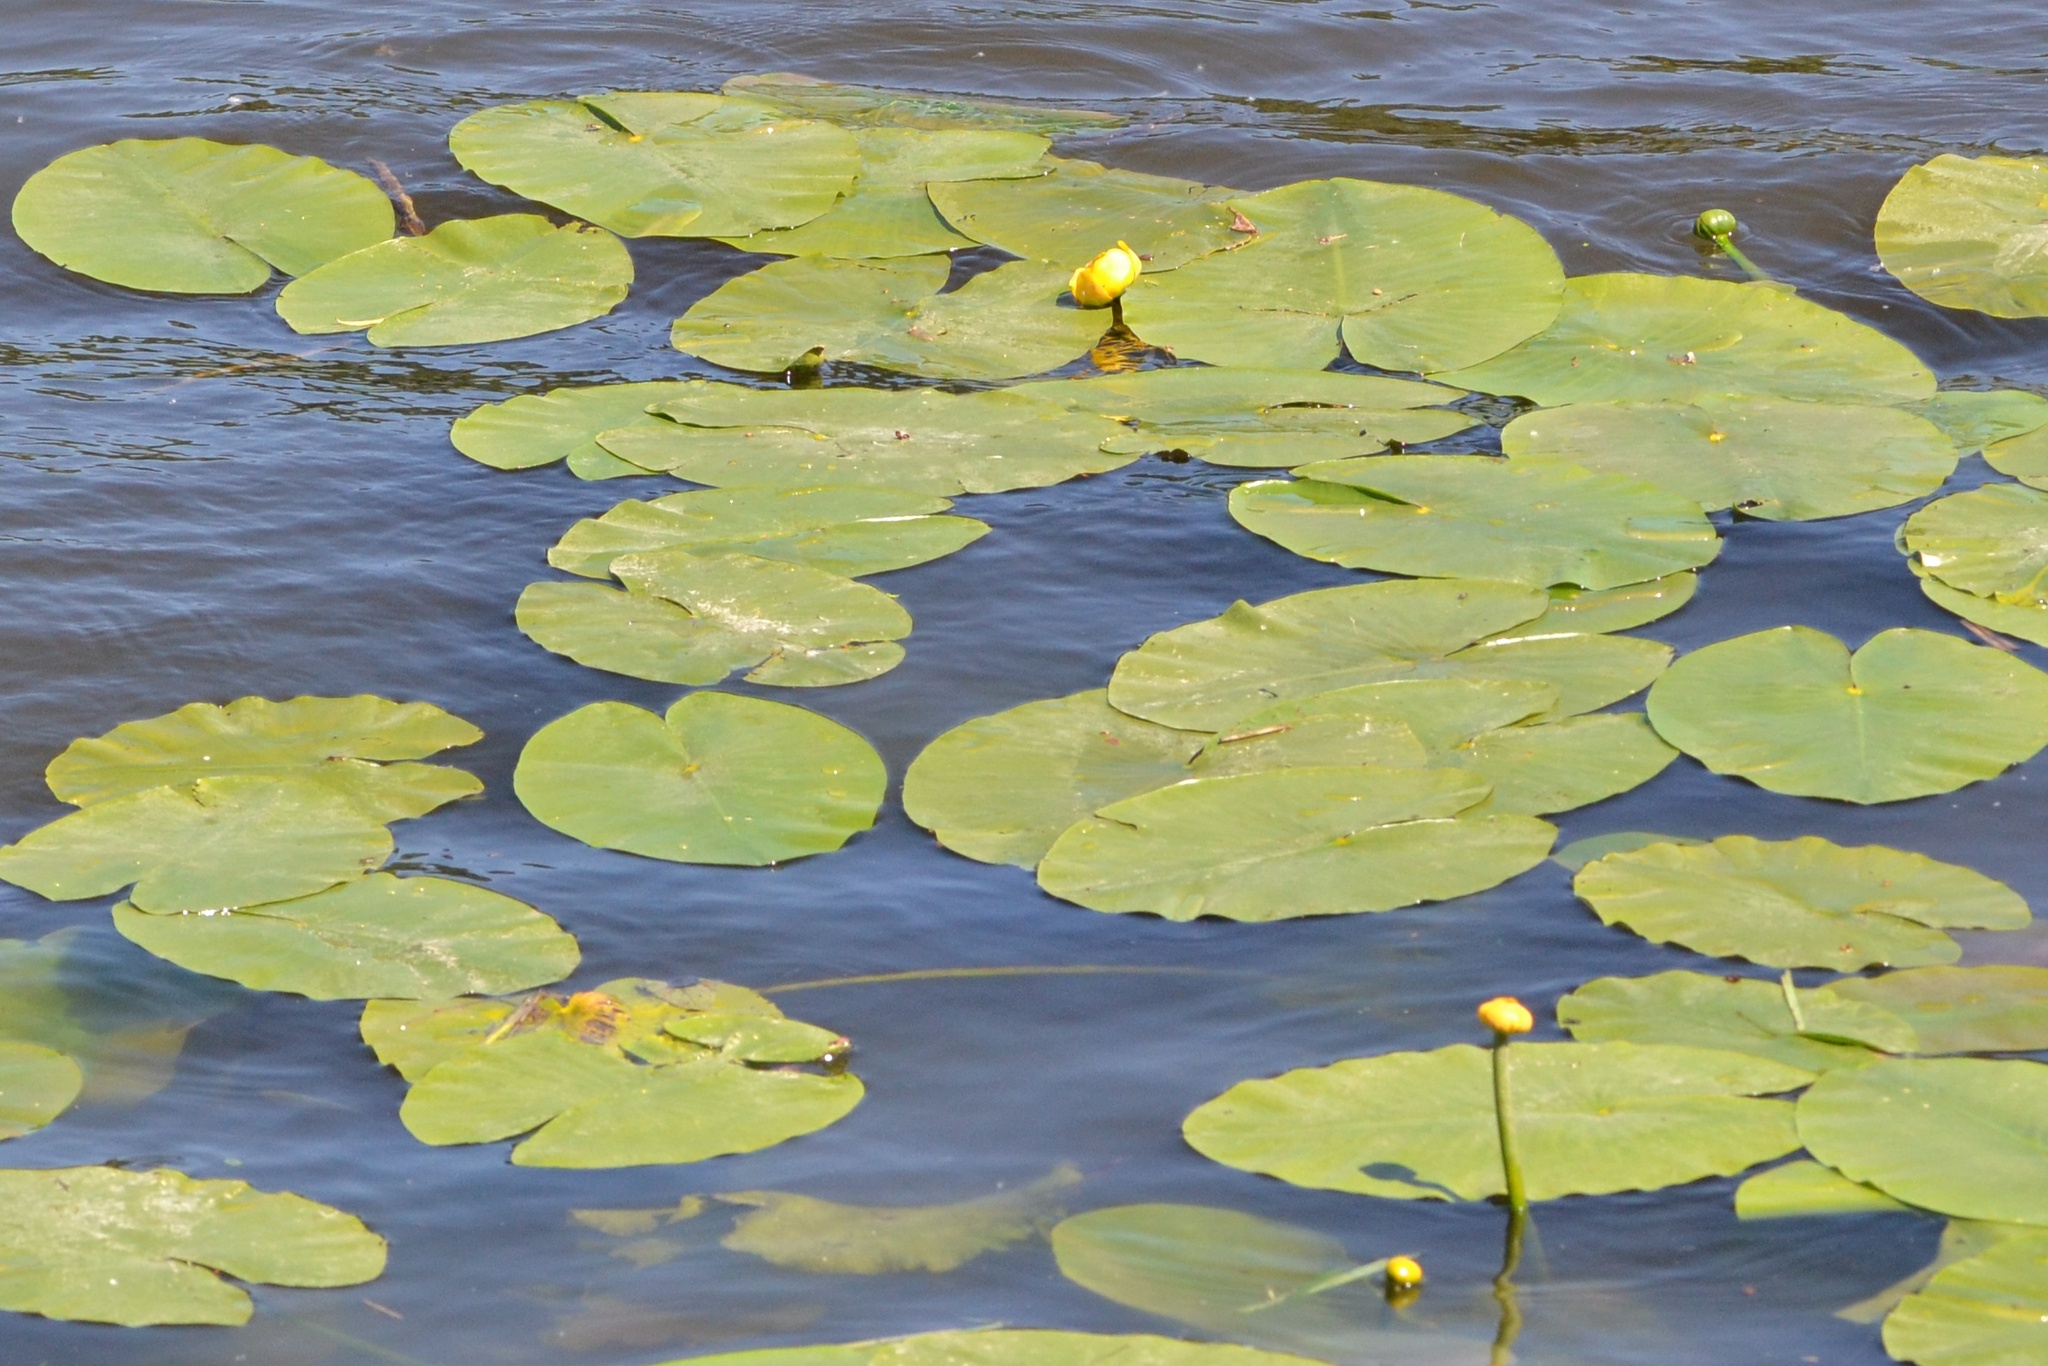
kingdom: Plantae
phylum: Tracheophyta
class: Magnoliopsida
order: Nymphaeales
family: Nymphaeaceae
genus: Nuphar
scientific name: Nuphar lutea
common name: Yellow water-lily
